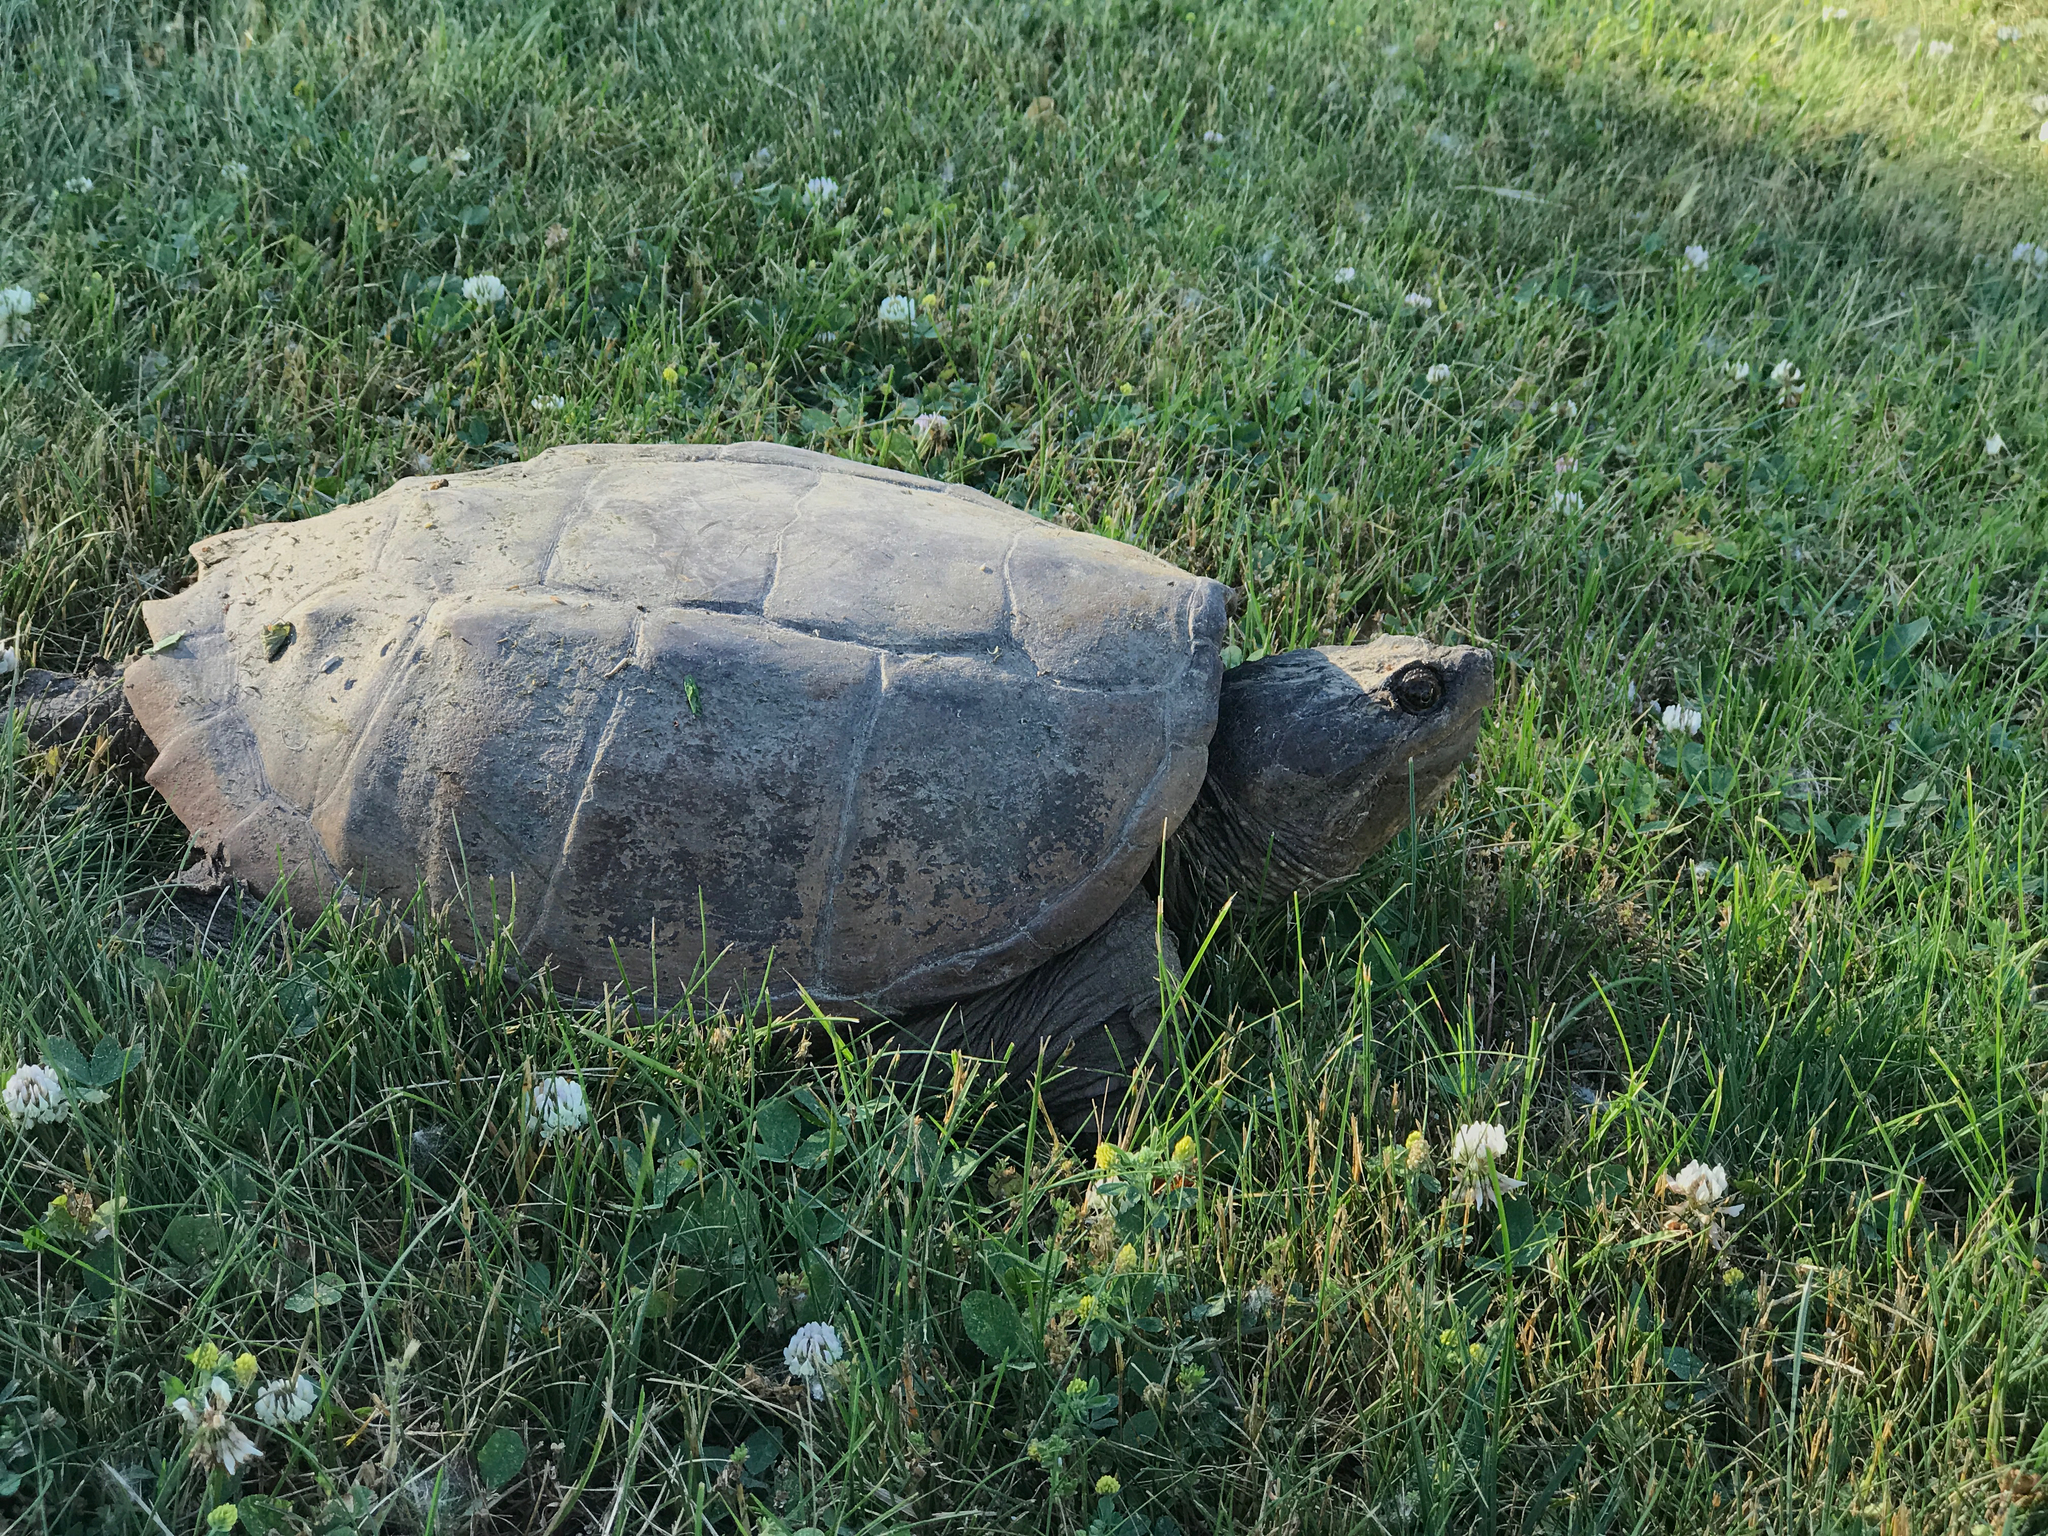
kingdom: Animalia
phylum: Chordata
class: Testudines
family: Chelydridae
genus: Chelydra
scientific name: Chelydra serpentina
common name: Common snapping turtle
